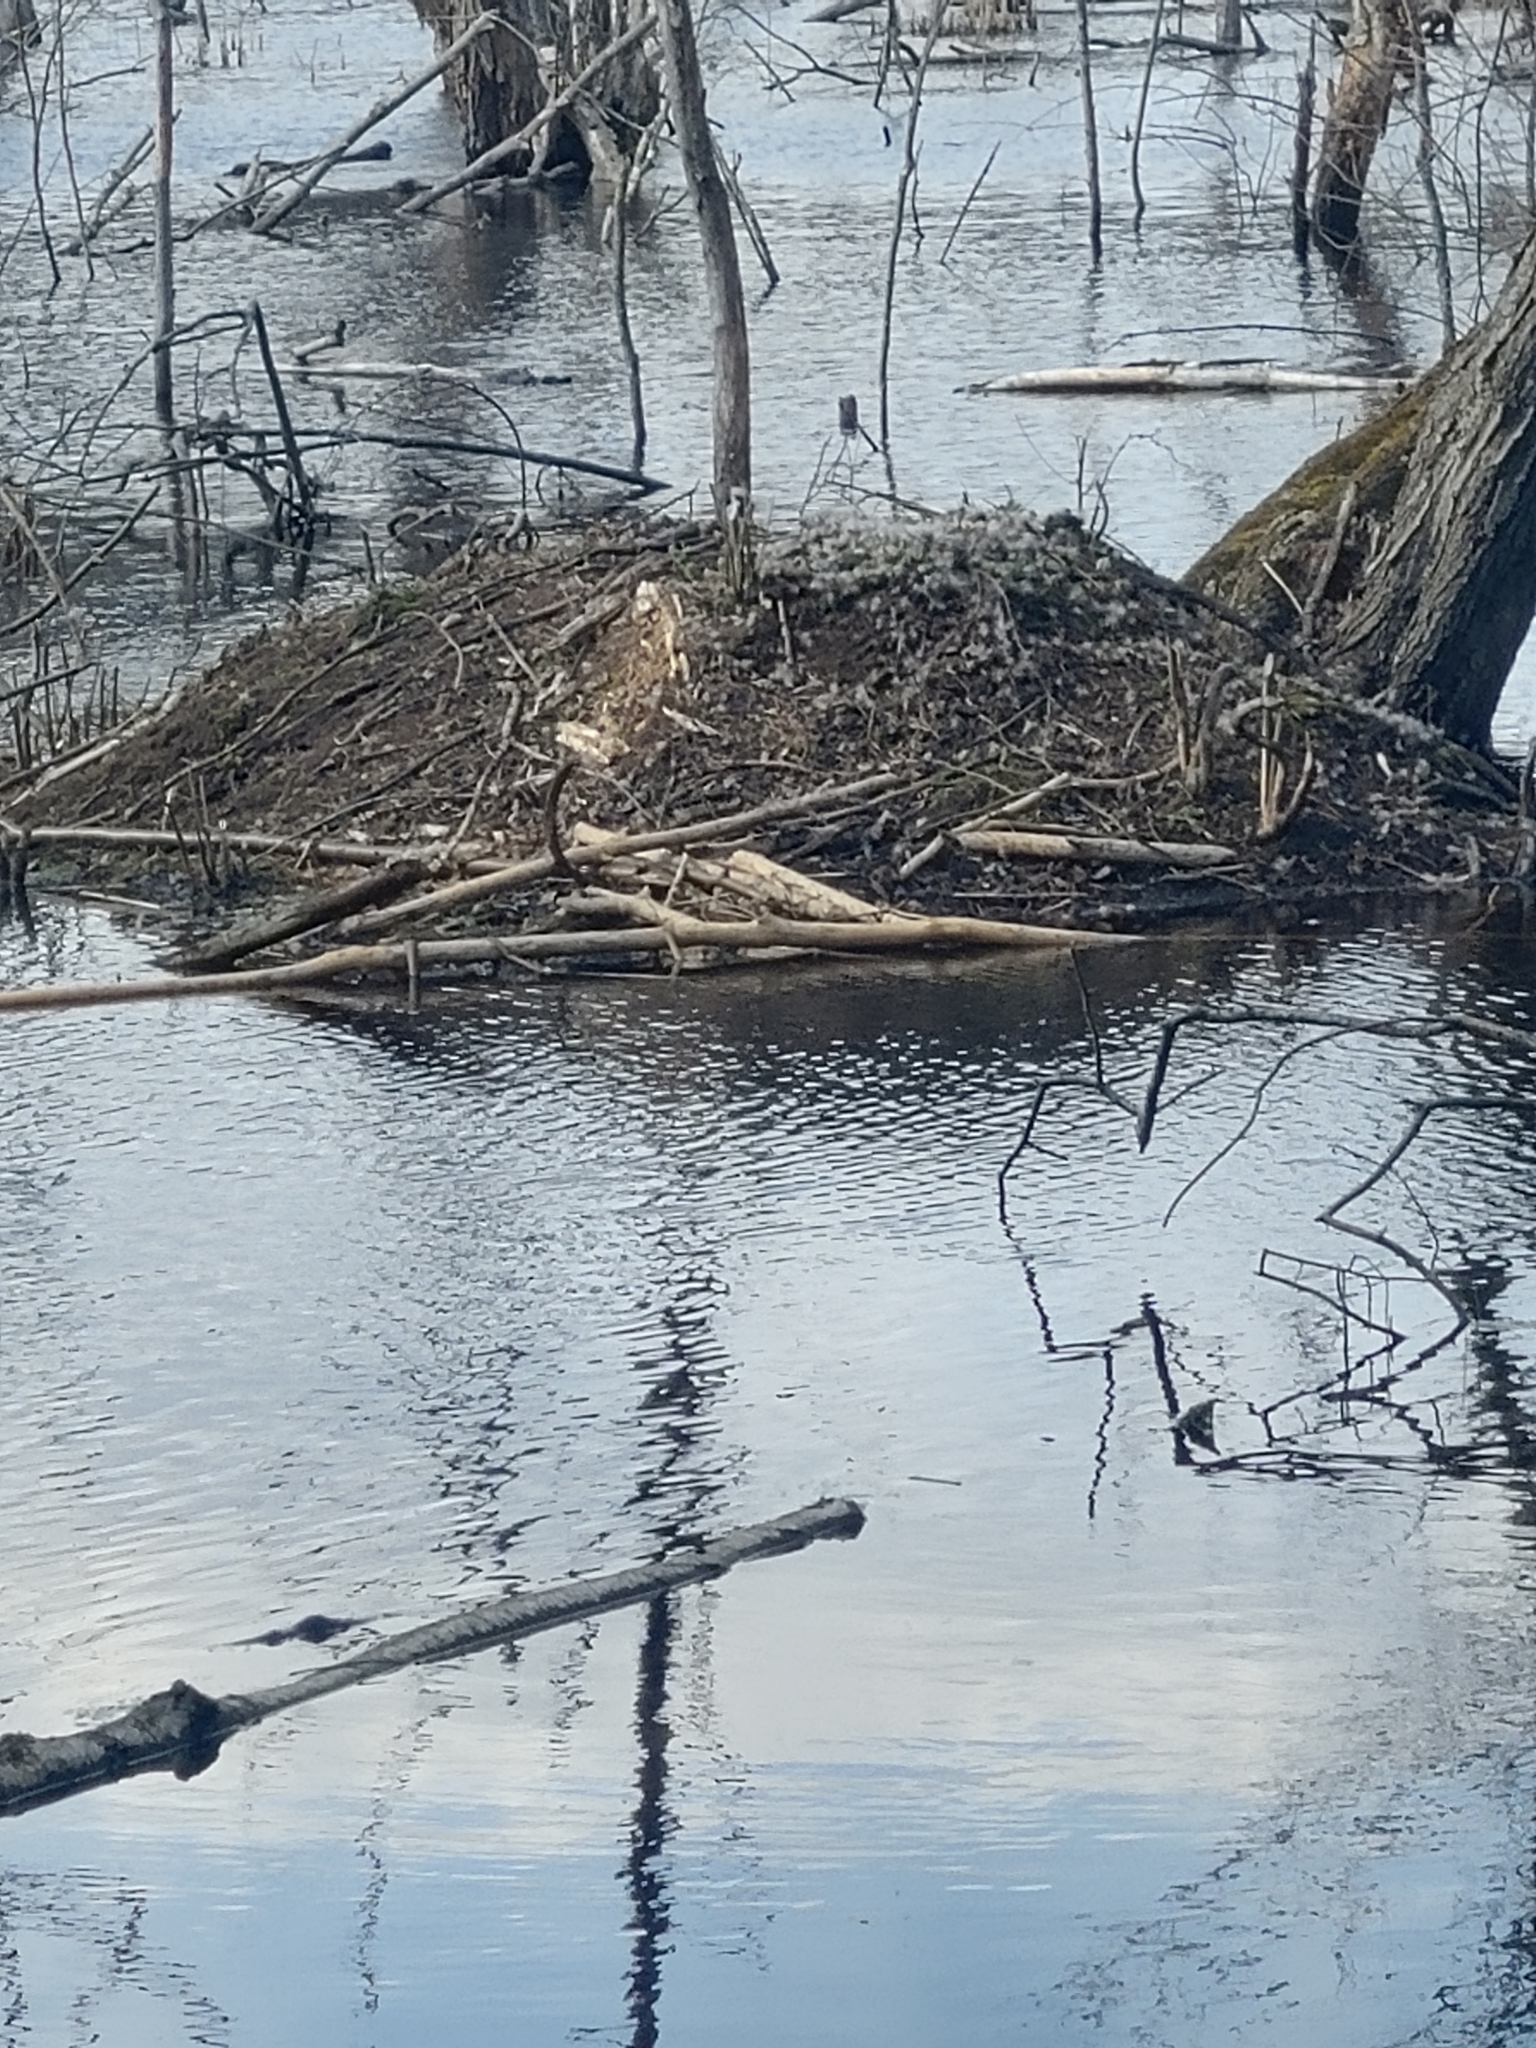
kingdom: Animalia
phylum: Chordata
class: Mammalia
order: Rodentia
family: Castoridae
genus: Castor
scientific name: Castor canadensis
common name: American beaver
